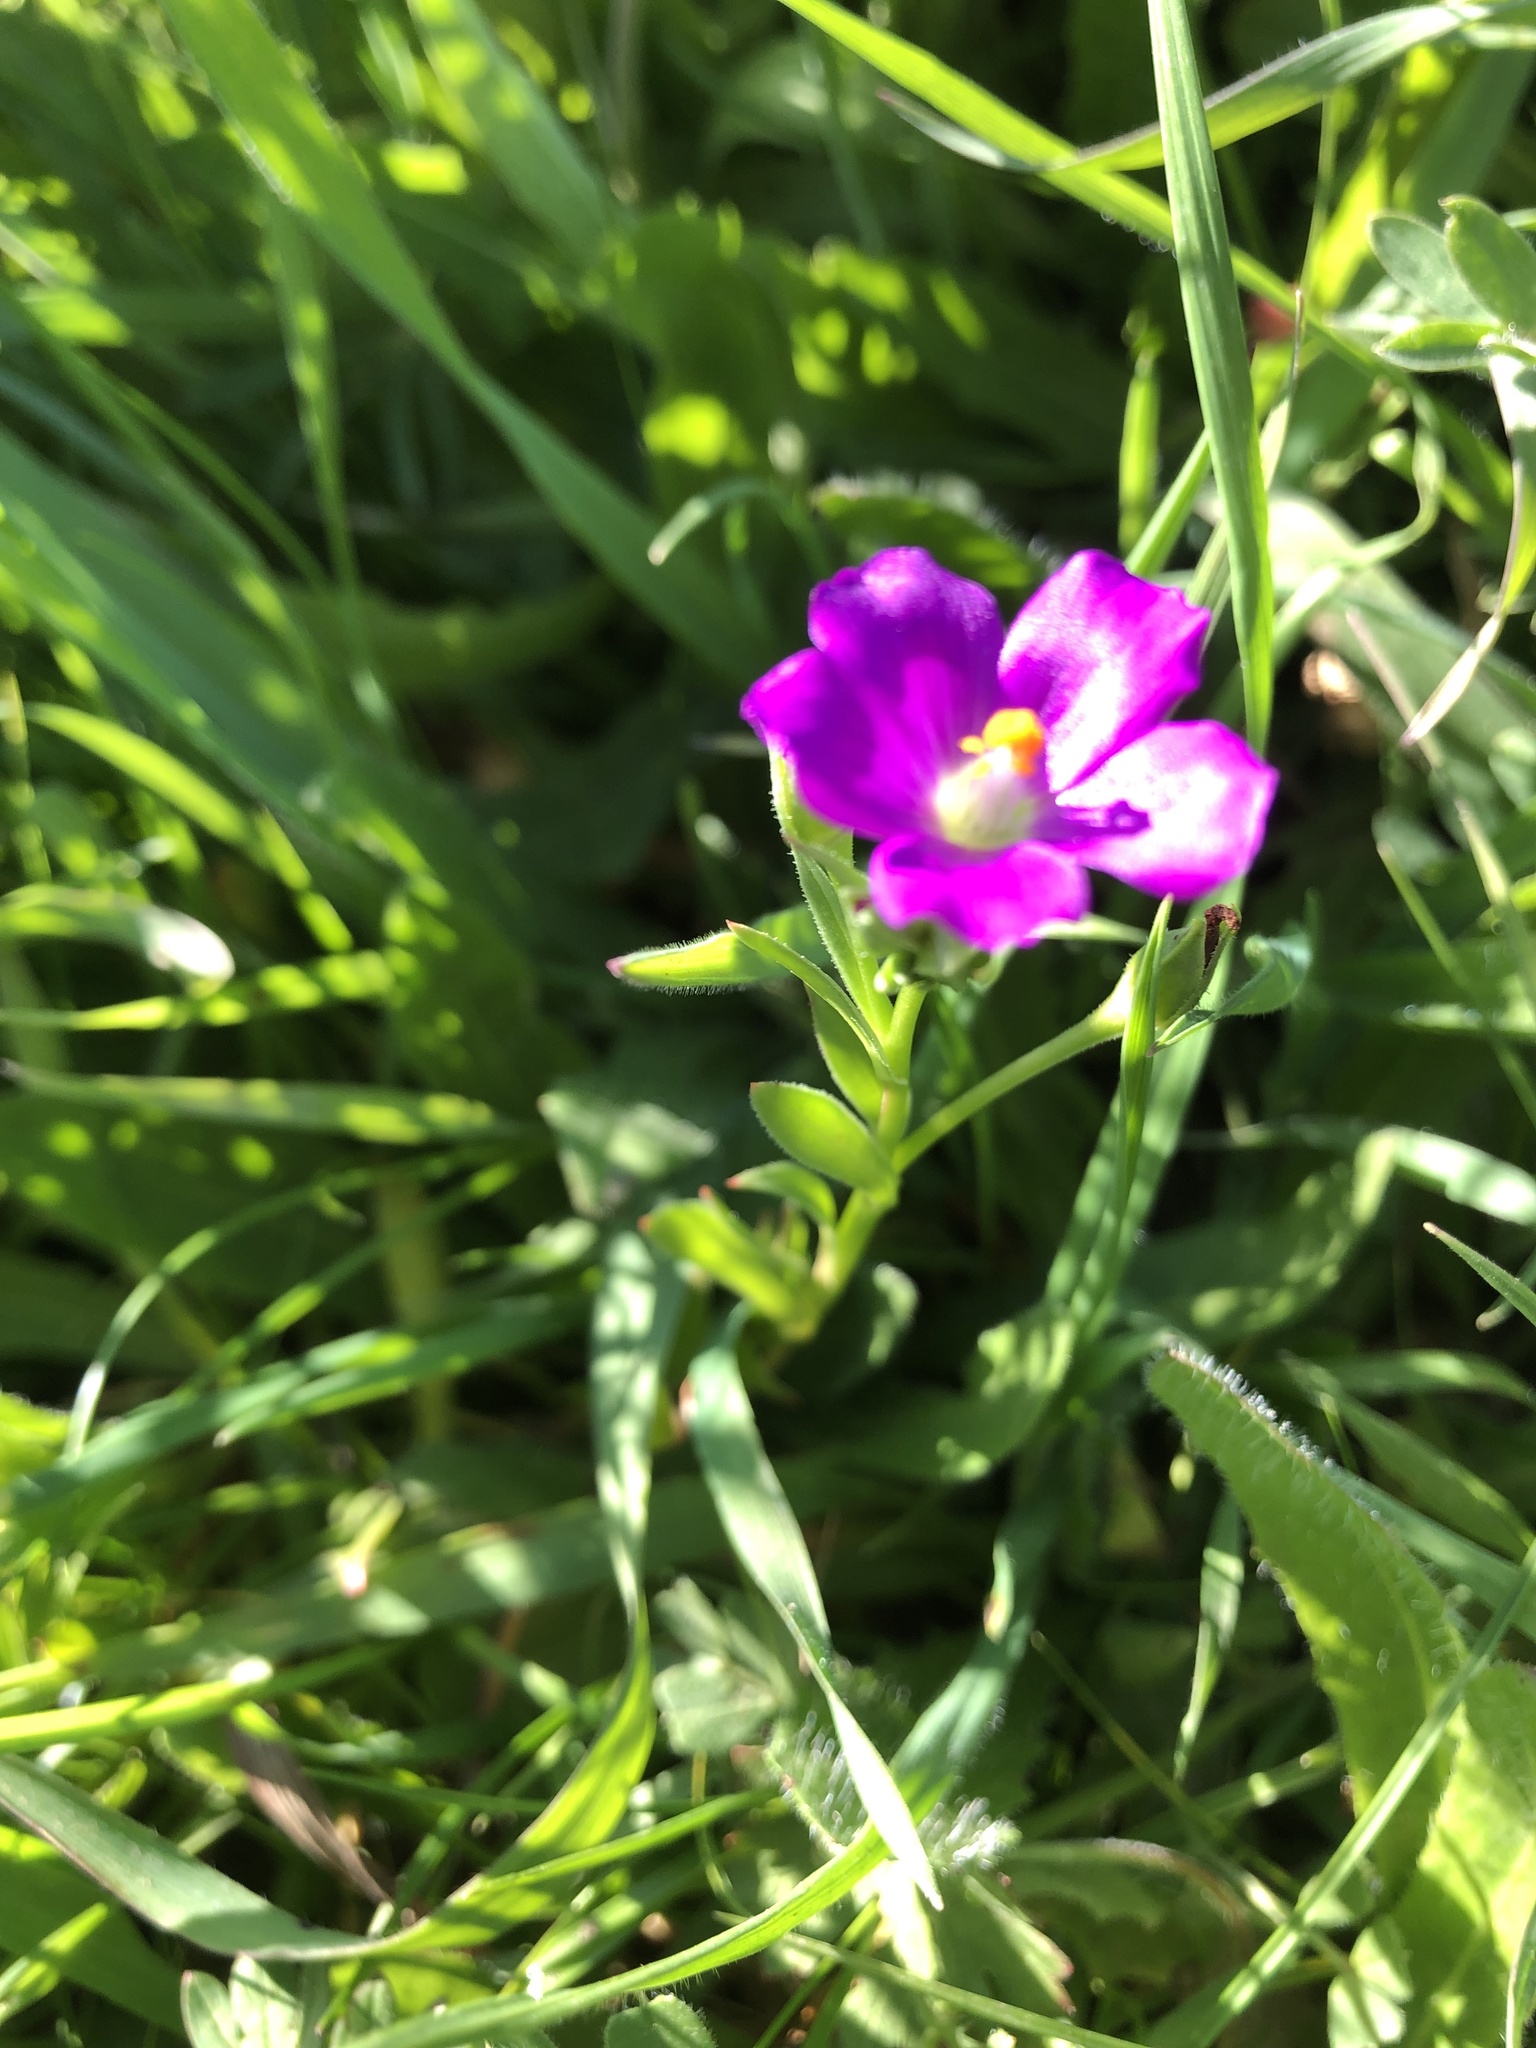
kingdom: Plantae
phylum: Tracheophyta
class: Magnoliopsida
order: Caryophyllales
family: Montiaceae
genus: Calandrinia
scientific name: Calandrinia menziesii
